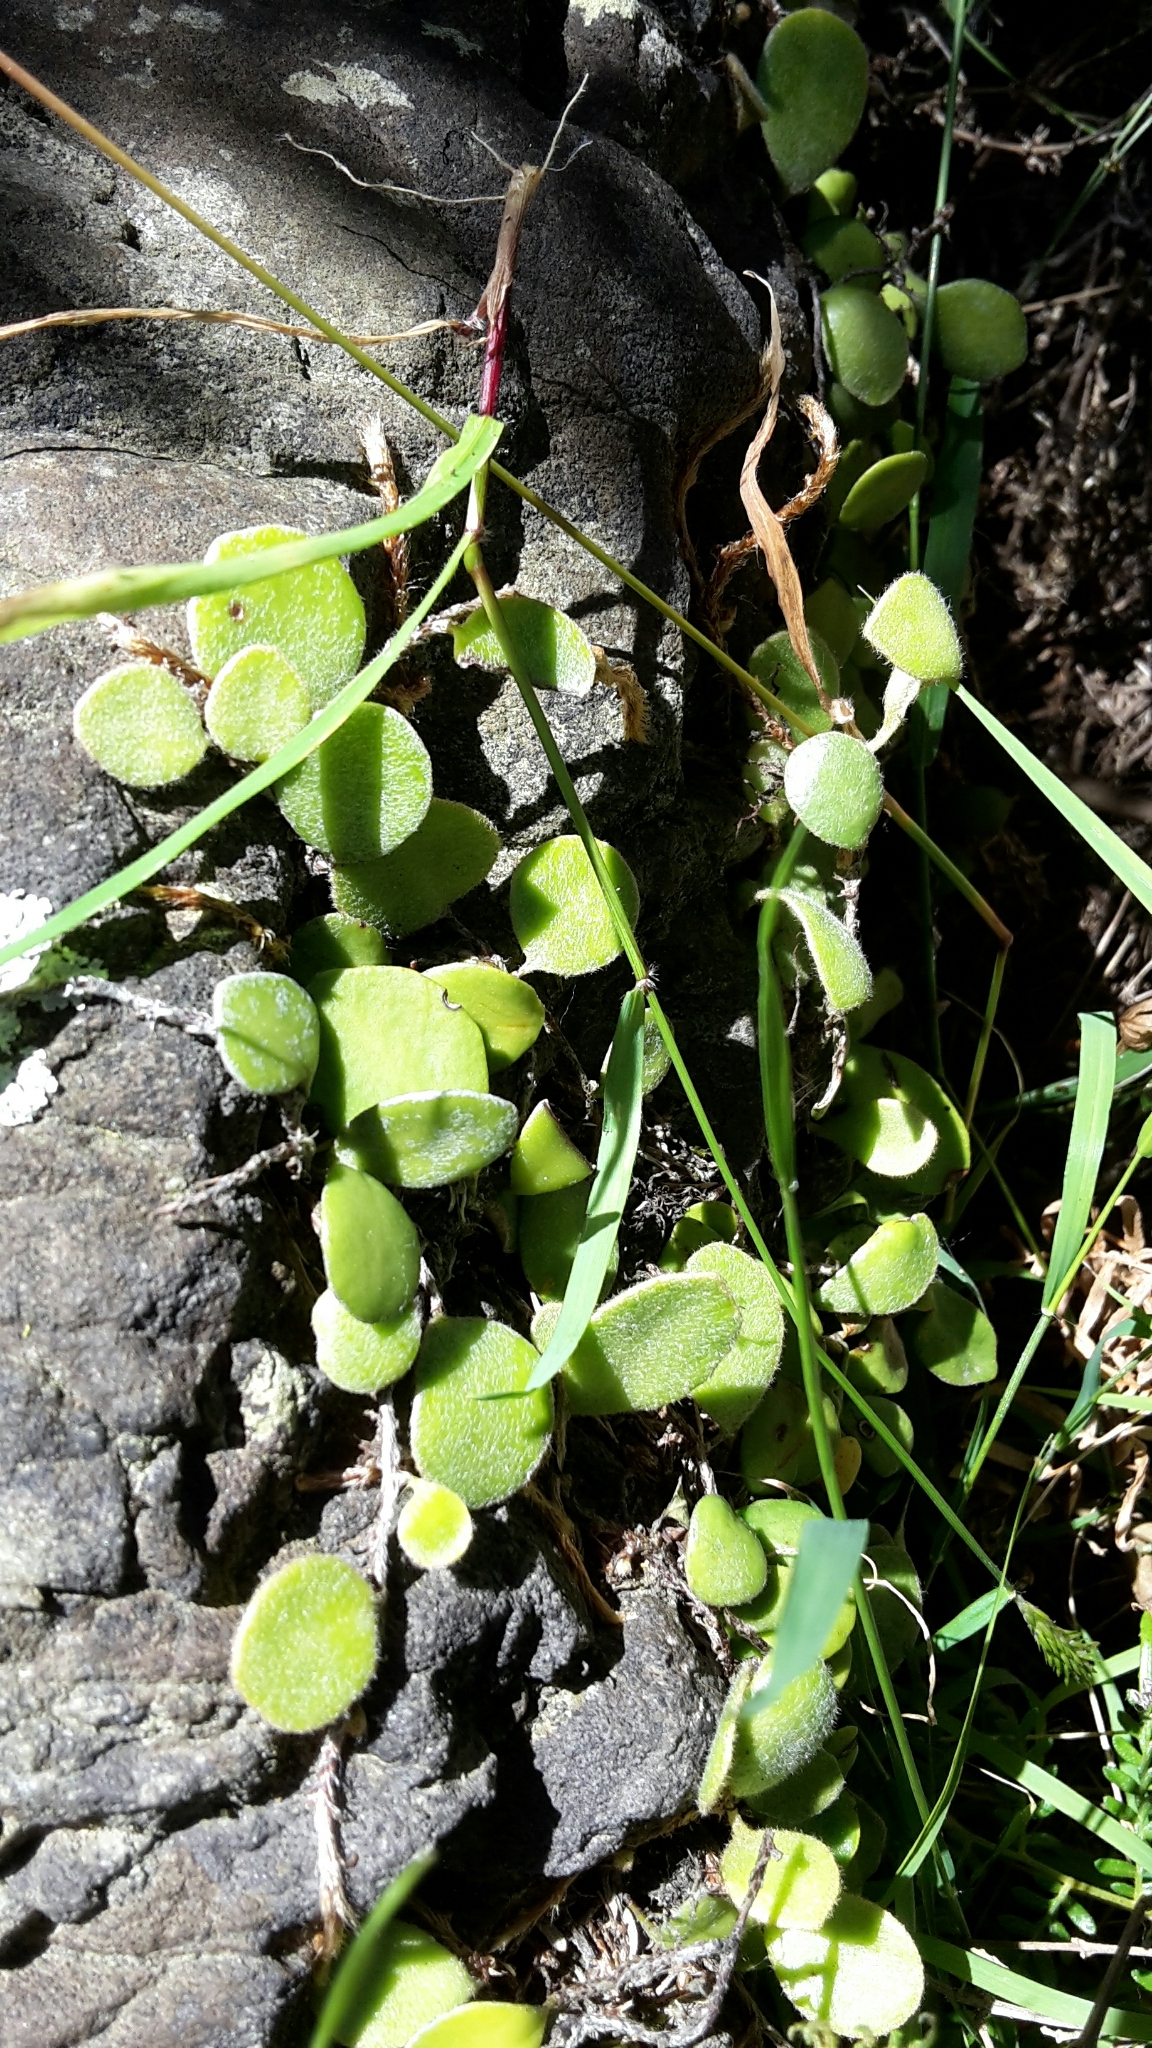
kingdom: Plantae
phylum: Tracheophyta
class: Polypodiopsida
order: Polypodiales
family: Polypodiaceae
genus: Pyrrosia
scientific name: Pyrrosia eleagnifolia
